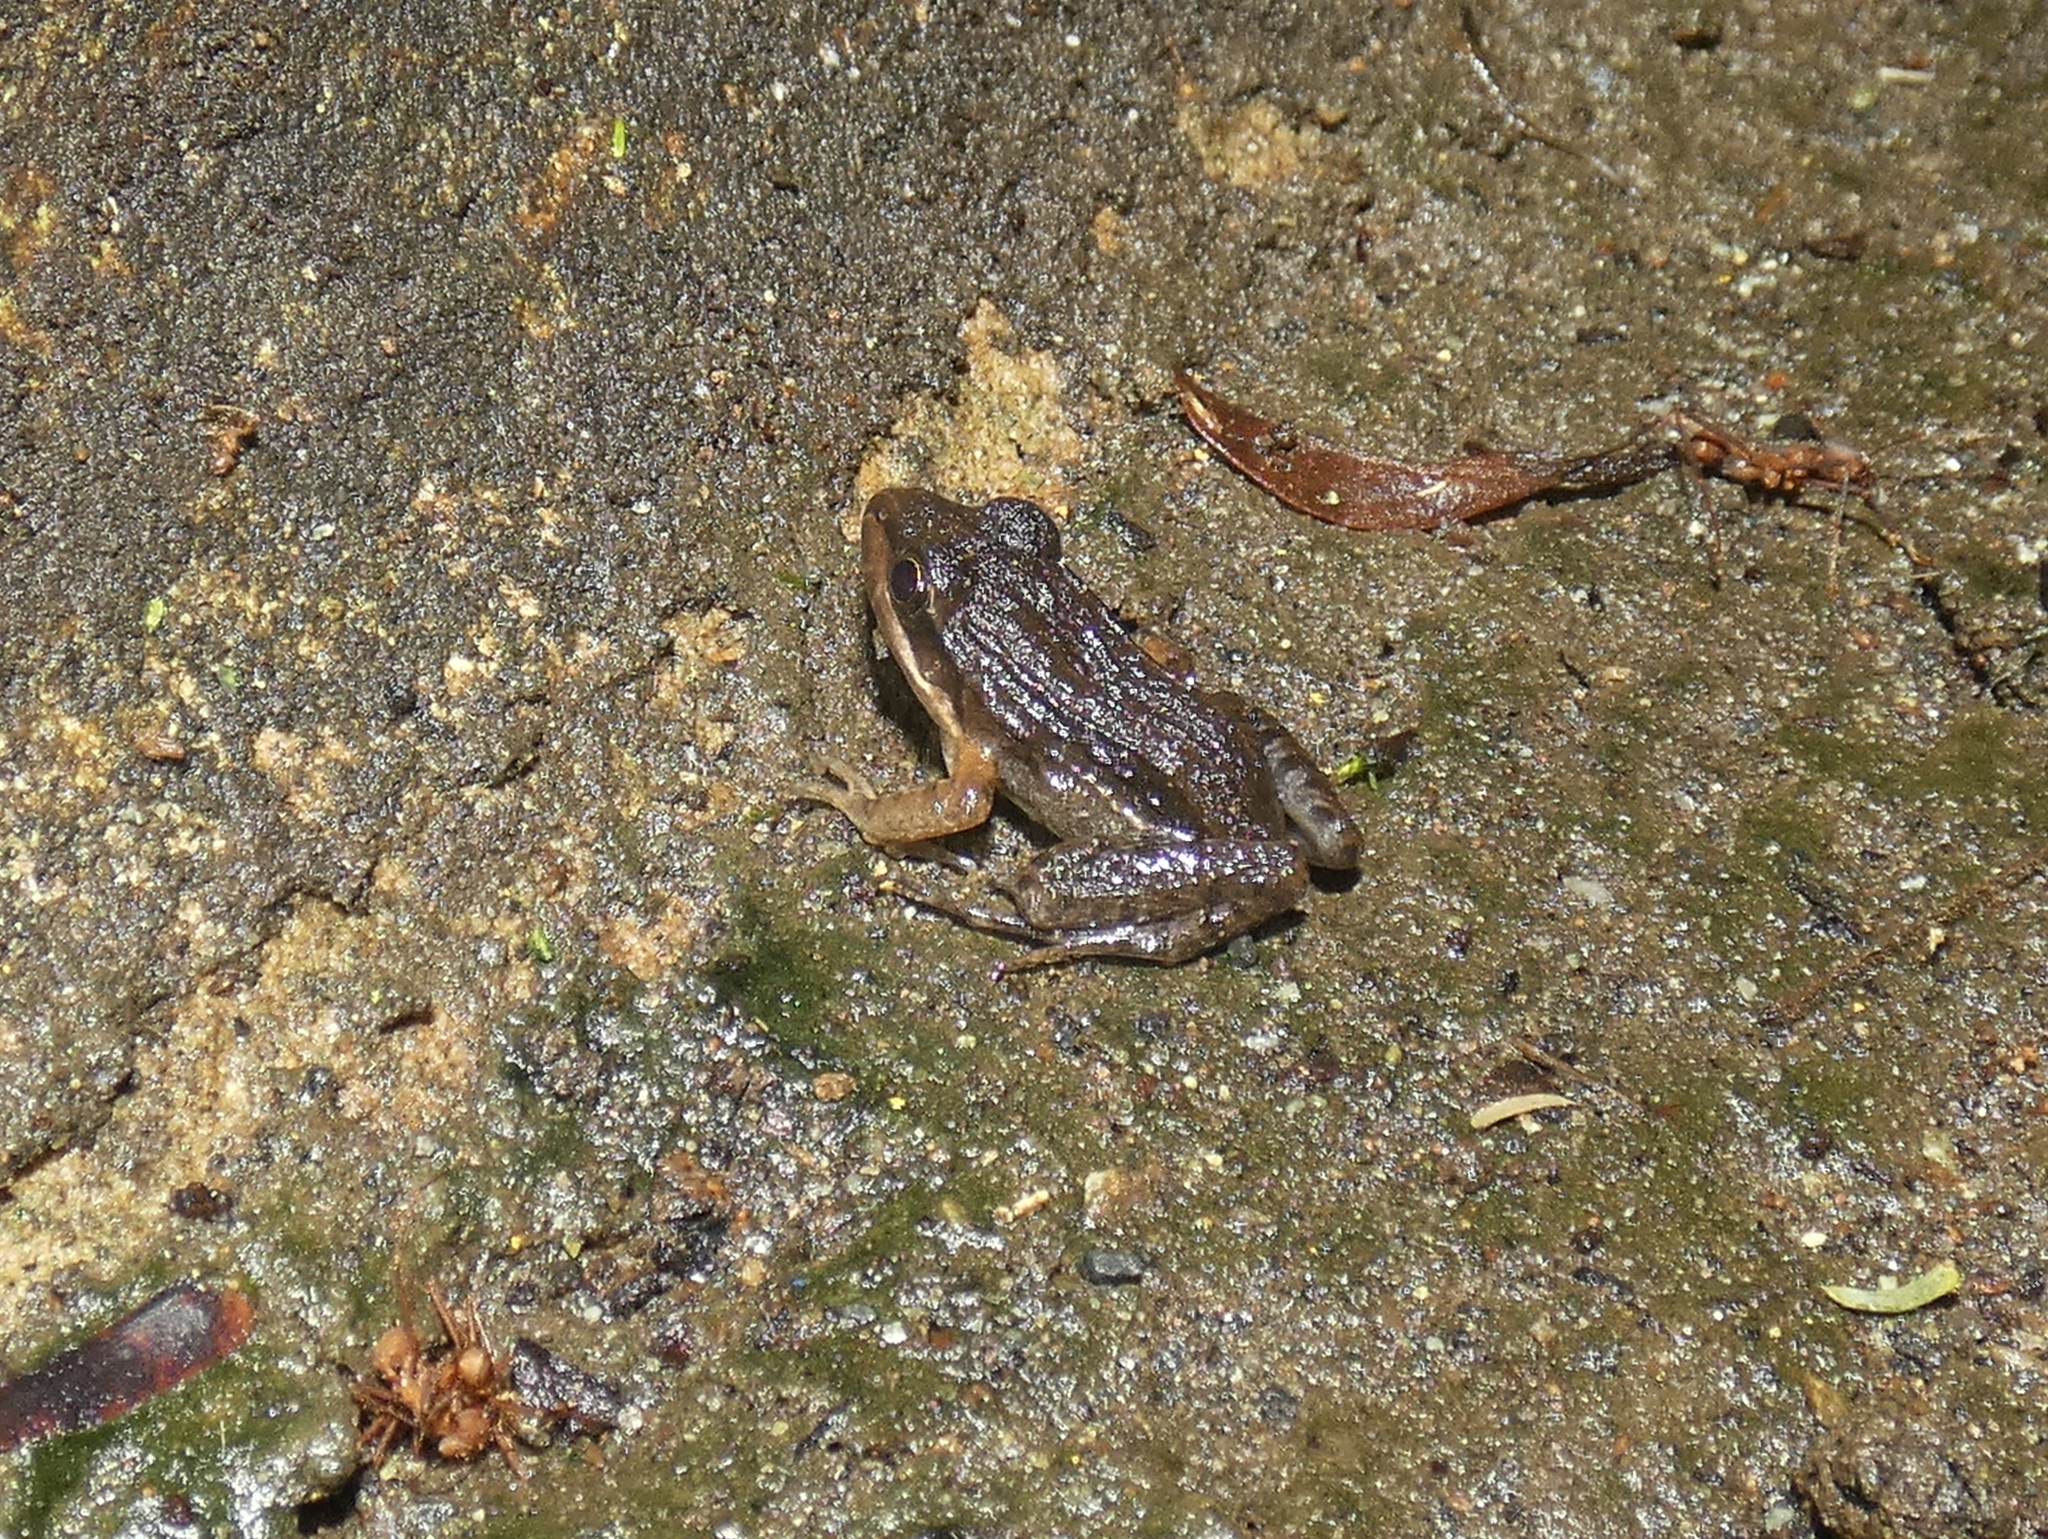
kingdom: Animalia
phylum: Chordata
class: Amphibia
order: Anura
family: Leptodactylidae
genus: Leptodactylus
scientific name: Leptodactylus fragilis
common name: Mexican white-lipped frog
